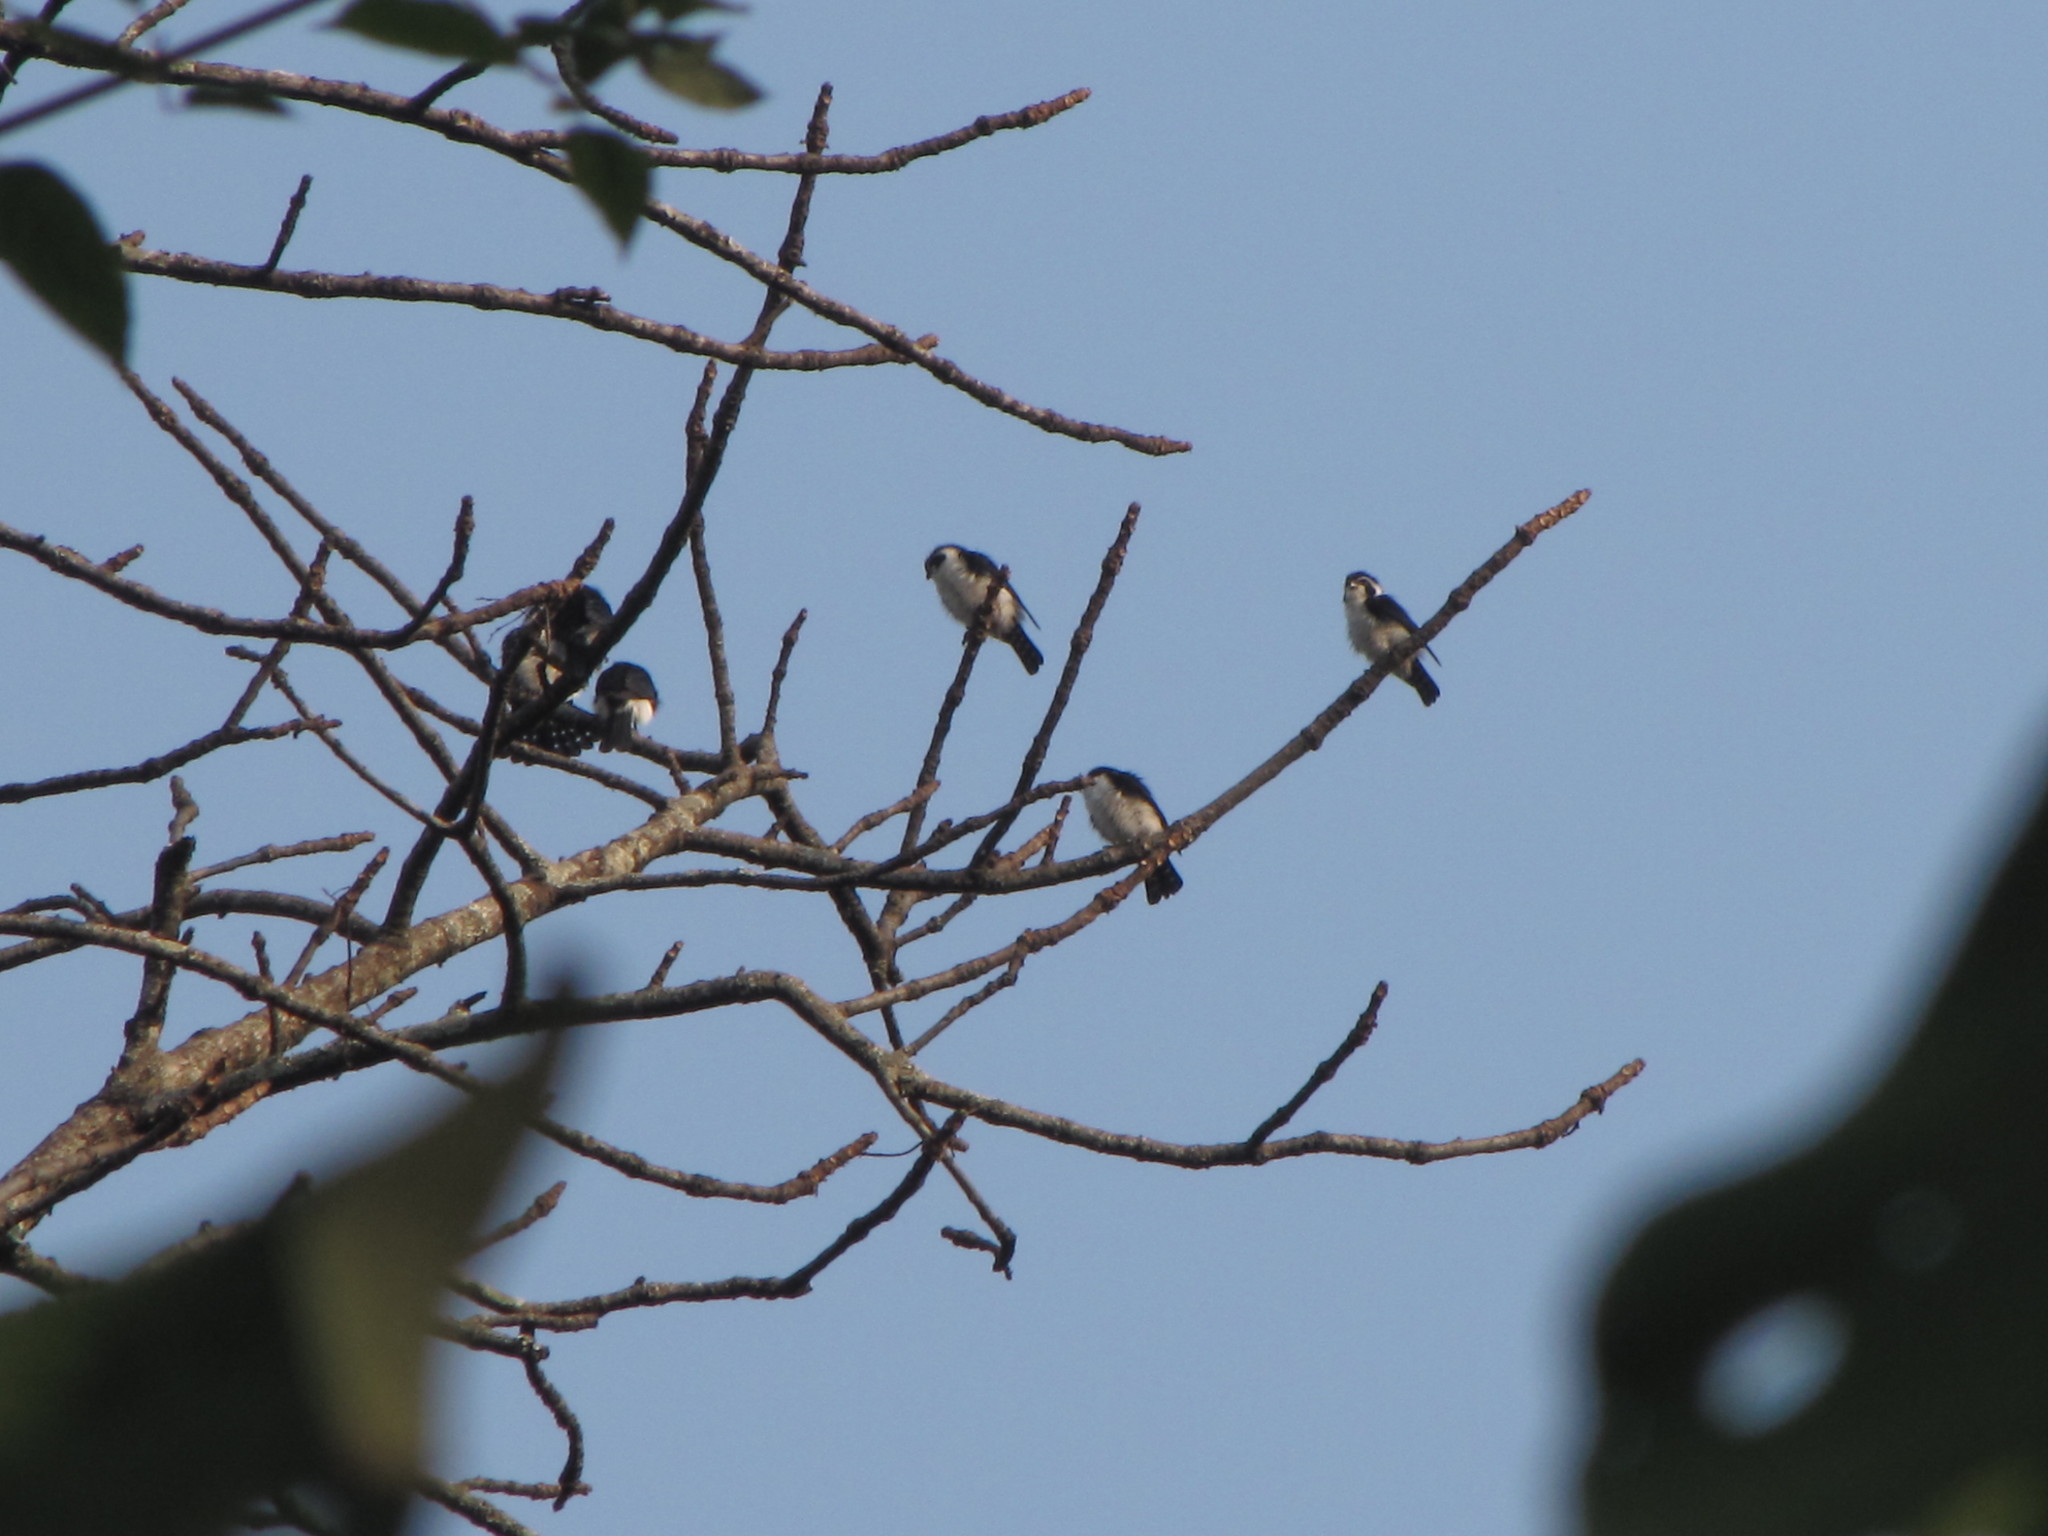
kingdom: Animalia
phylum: Chordata
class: Aves
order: Falconiformes
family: Falconidae
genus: Microhierax
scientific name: Microhierax melanoleucos
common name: Pied falconet
